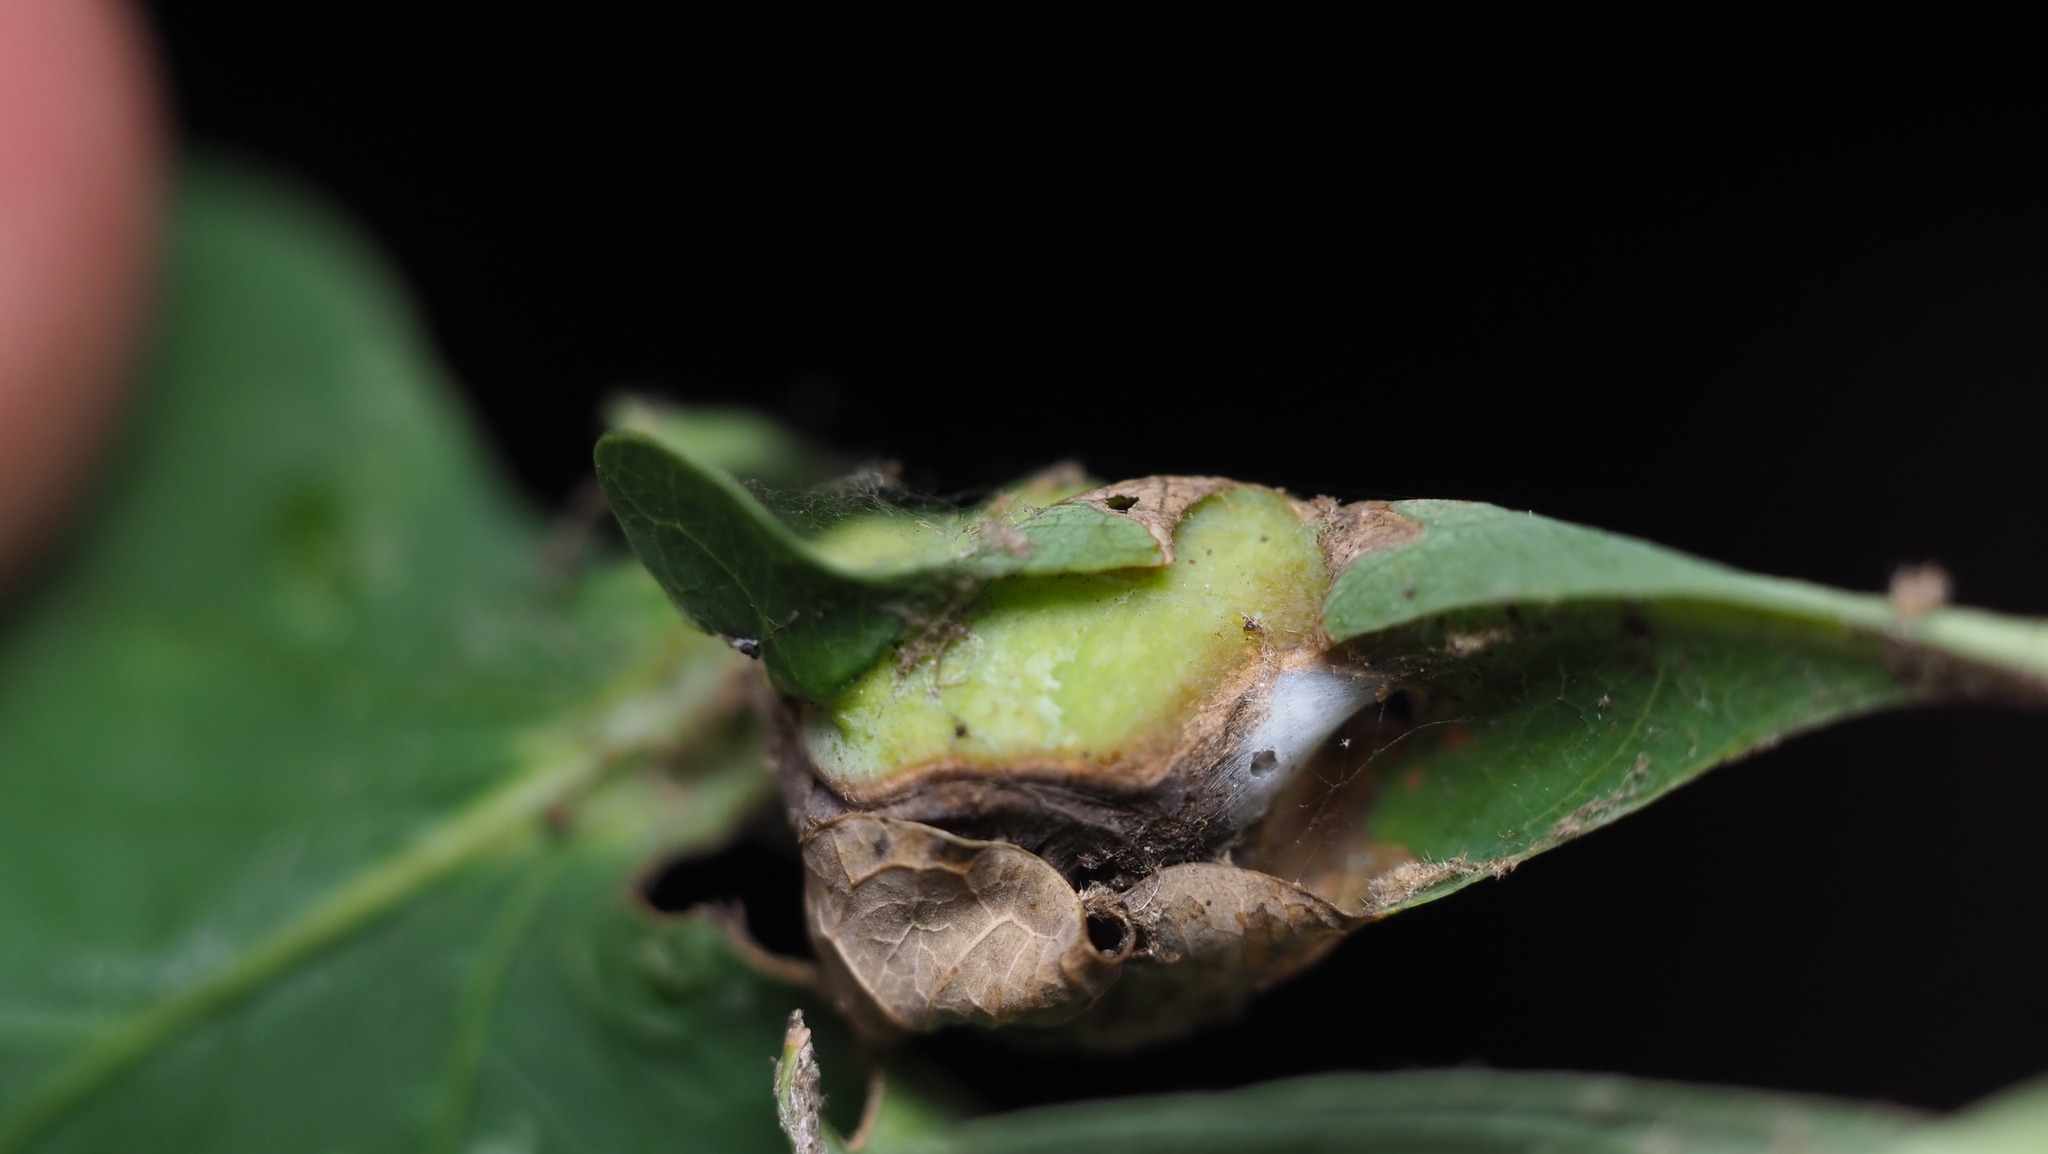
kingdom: Animalia
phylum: Arthropoda
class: Insecta
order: Hymenoptera
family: Cynipidae
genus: Andricus
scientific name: Andricus
